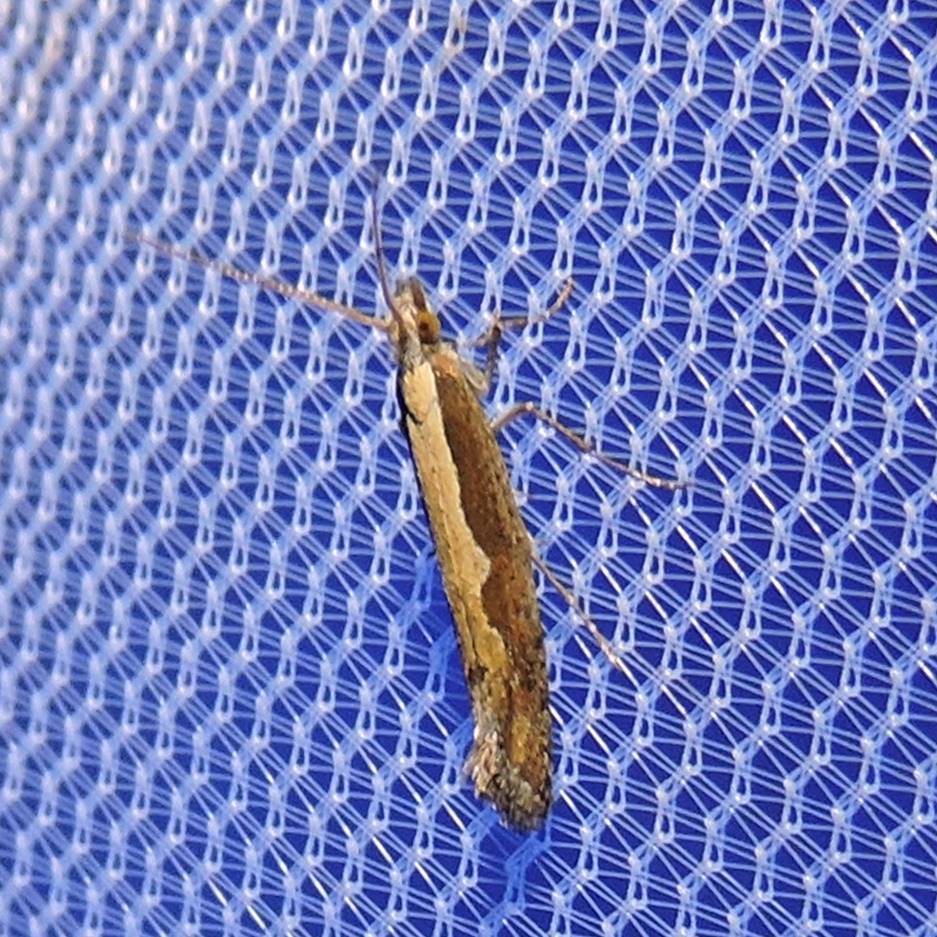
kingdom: Animalia
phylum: Arthropoda
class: Insecta
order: Lepidoptera
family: Plutellidae
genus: Plutella
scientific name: Plutella xylostella
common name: Diamond-back moth
